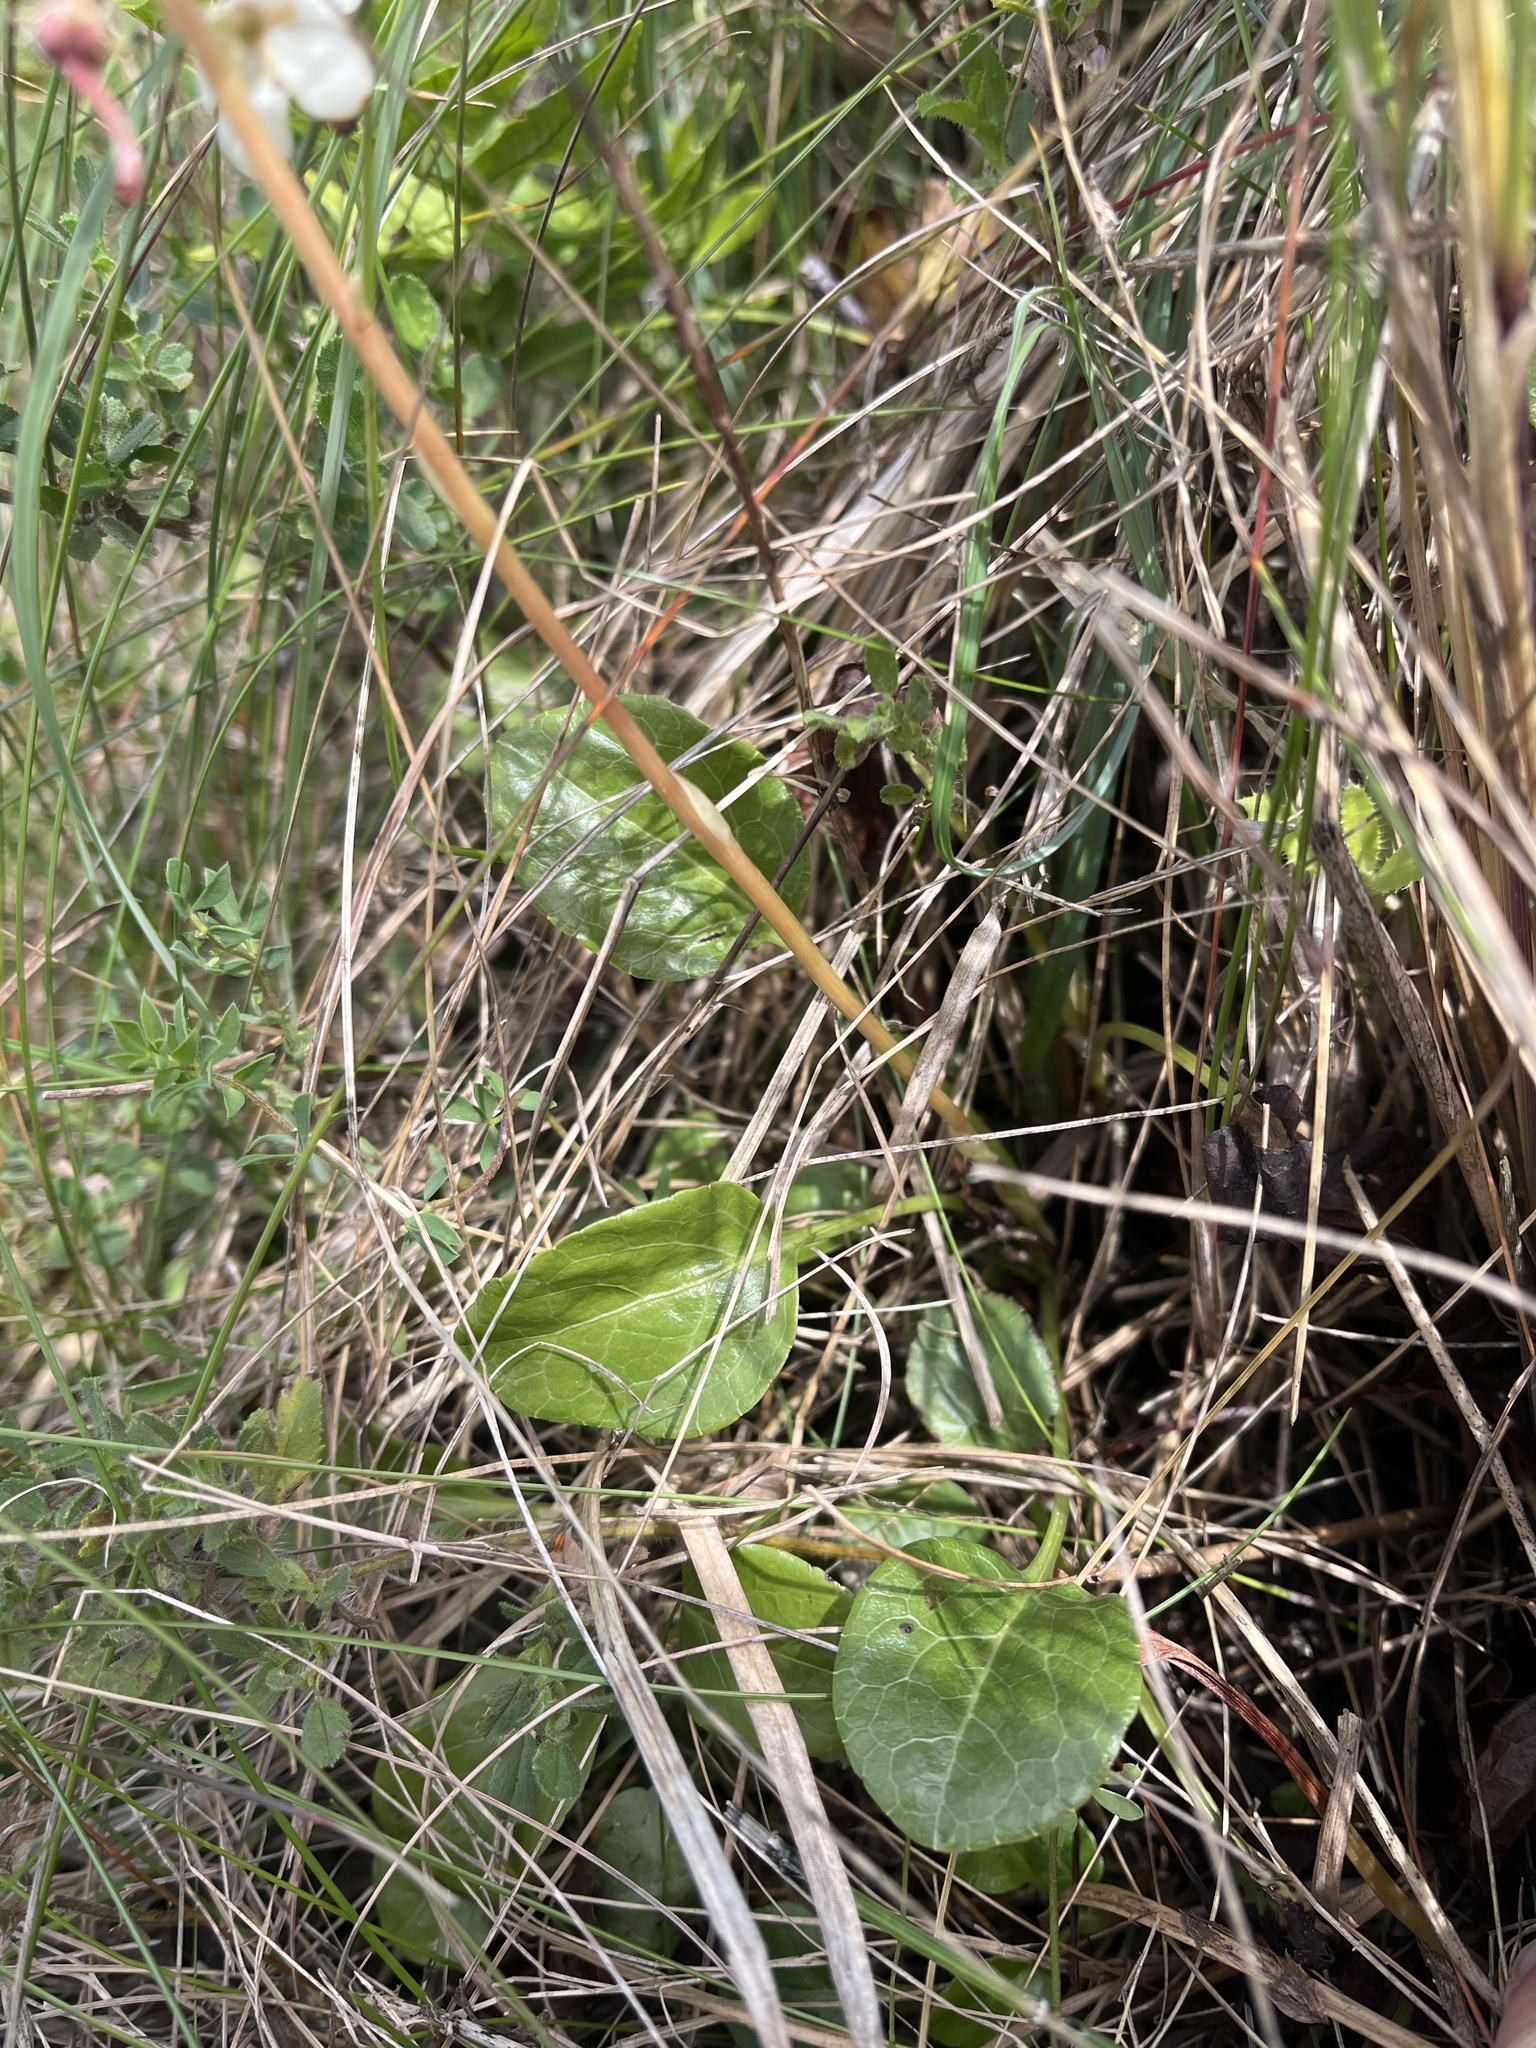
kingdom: Plantae
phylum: Tracheophyta
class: Magnoliopsida
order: Ericales
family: Ericaceae
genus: Pyrola
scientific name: Pyrola rotundifolia
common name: Round-leaved wintergreen
